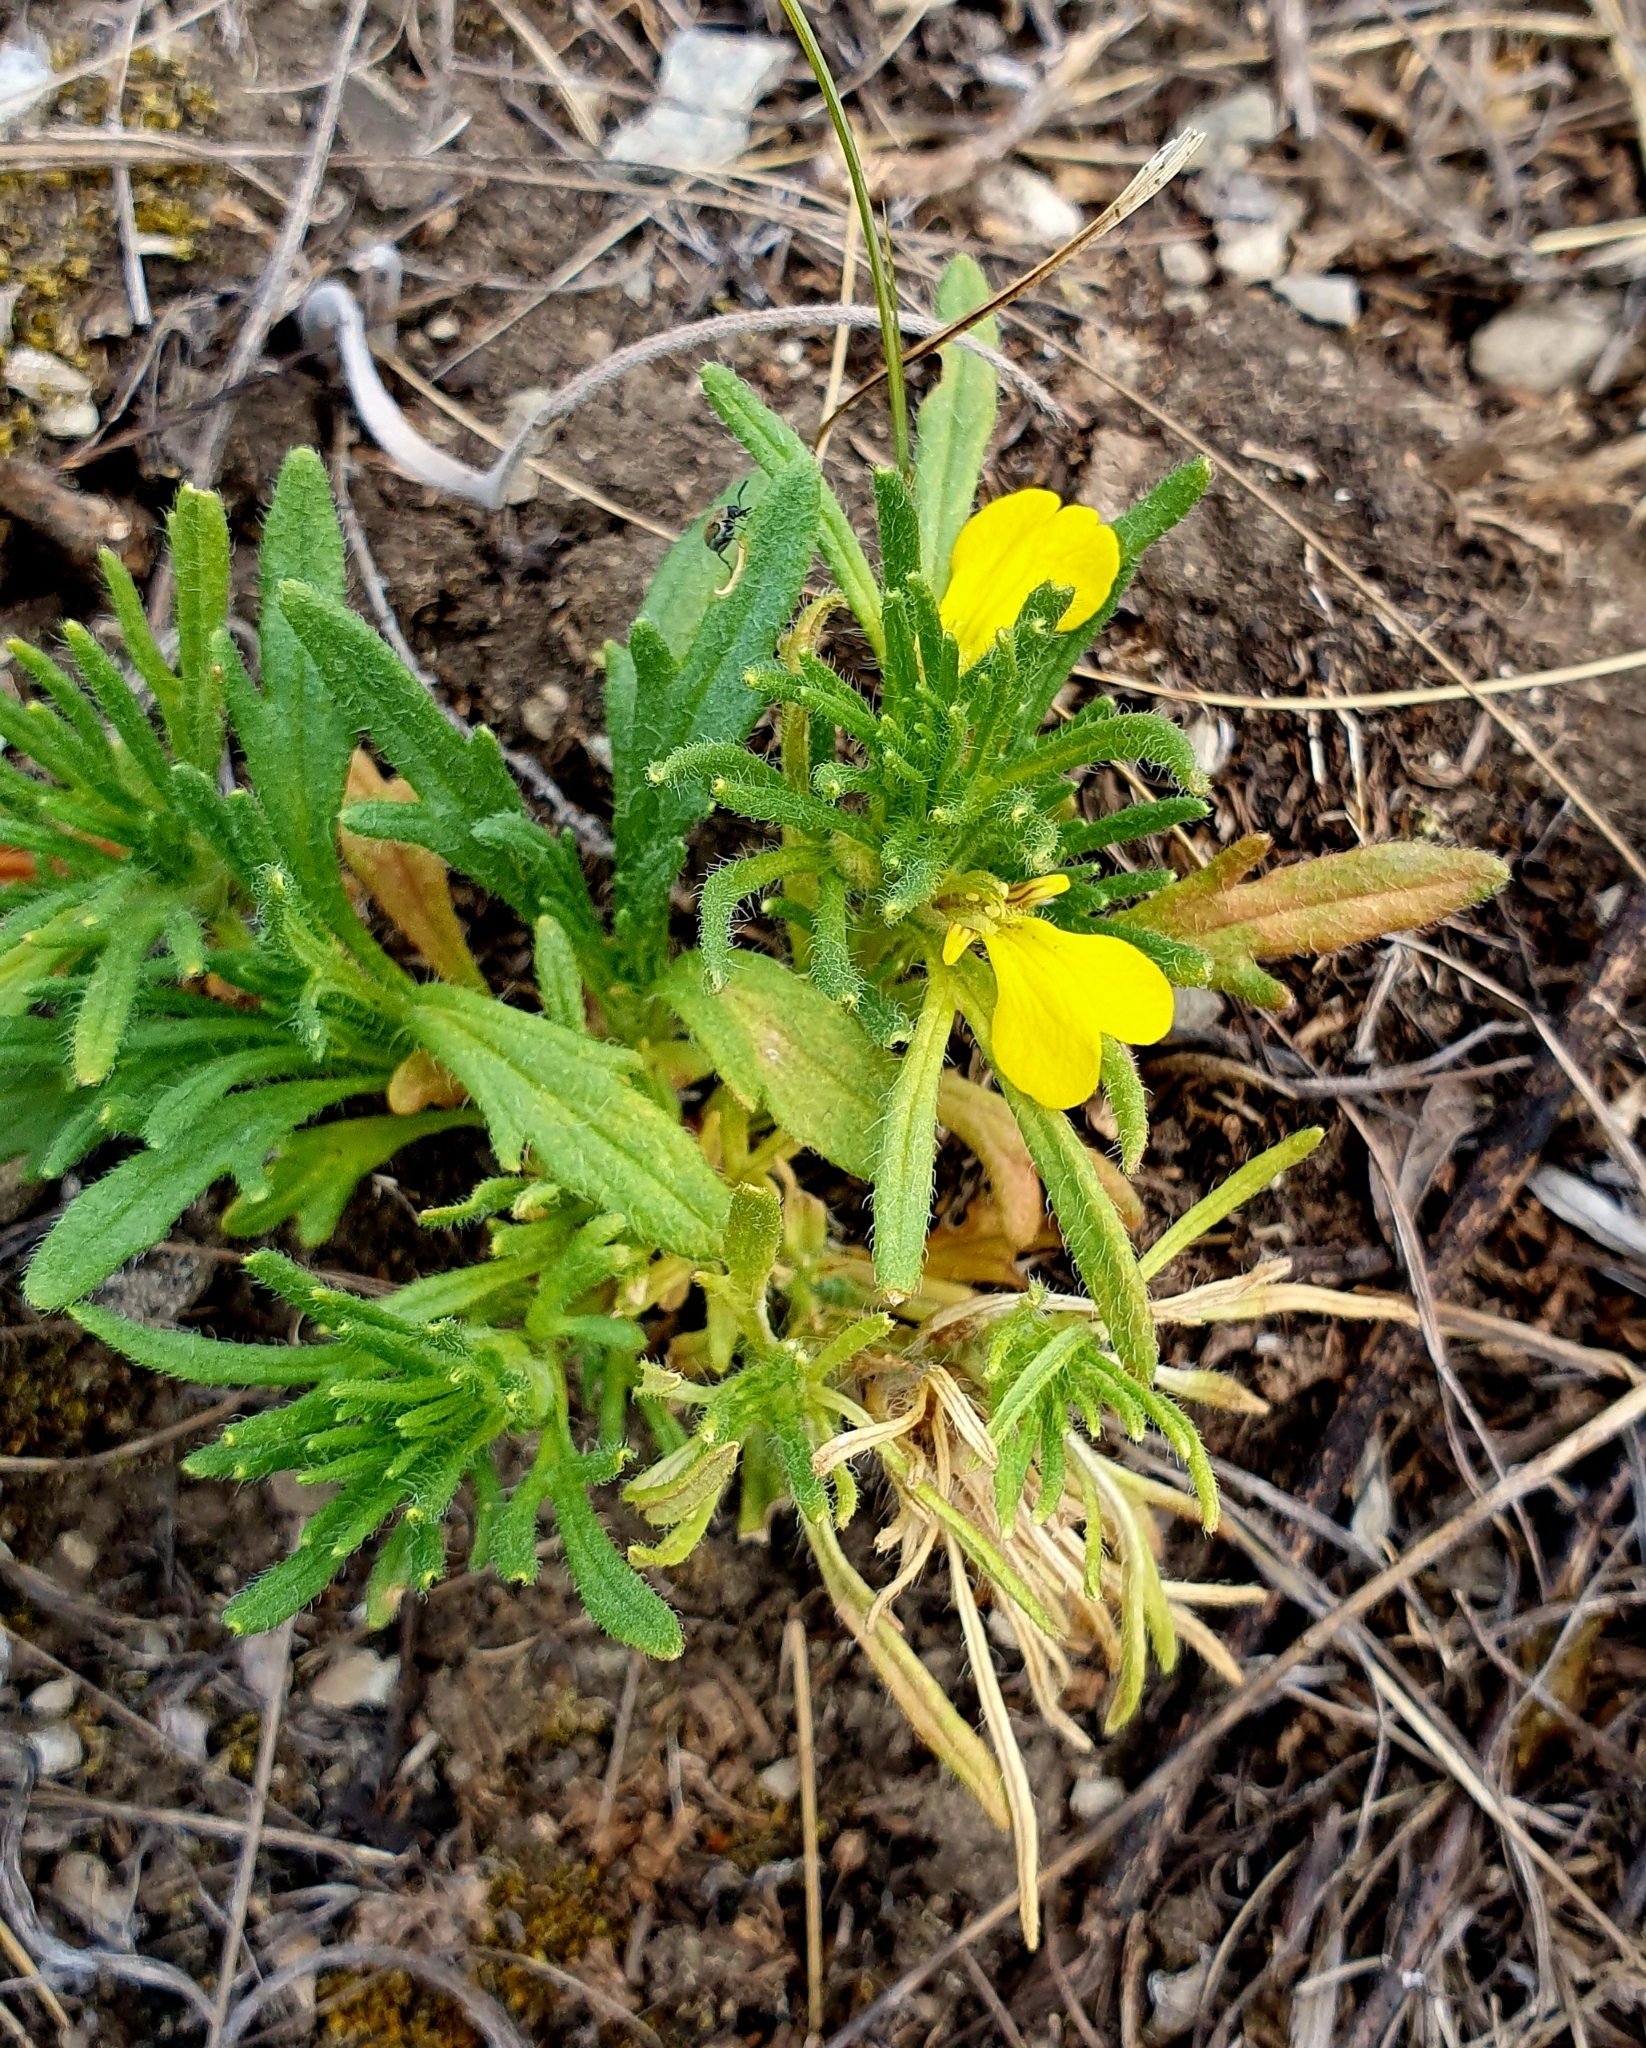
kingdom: Plantae
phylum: Tracheophyta
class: Magnoliopsida
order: Lamiales
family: Lamiaceae
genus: Ajuga
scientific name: Ajuga chamaepitys
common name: Ground-pine
